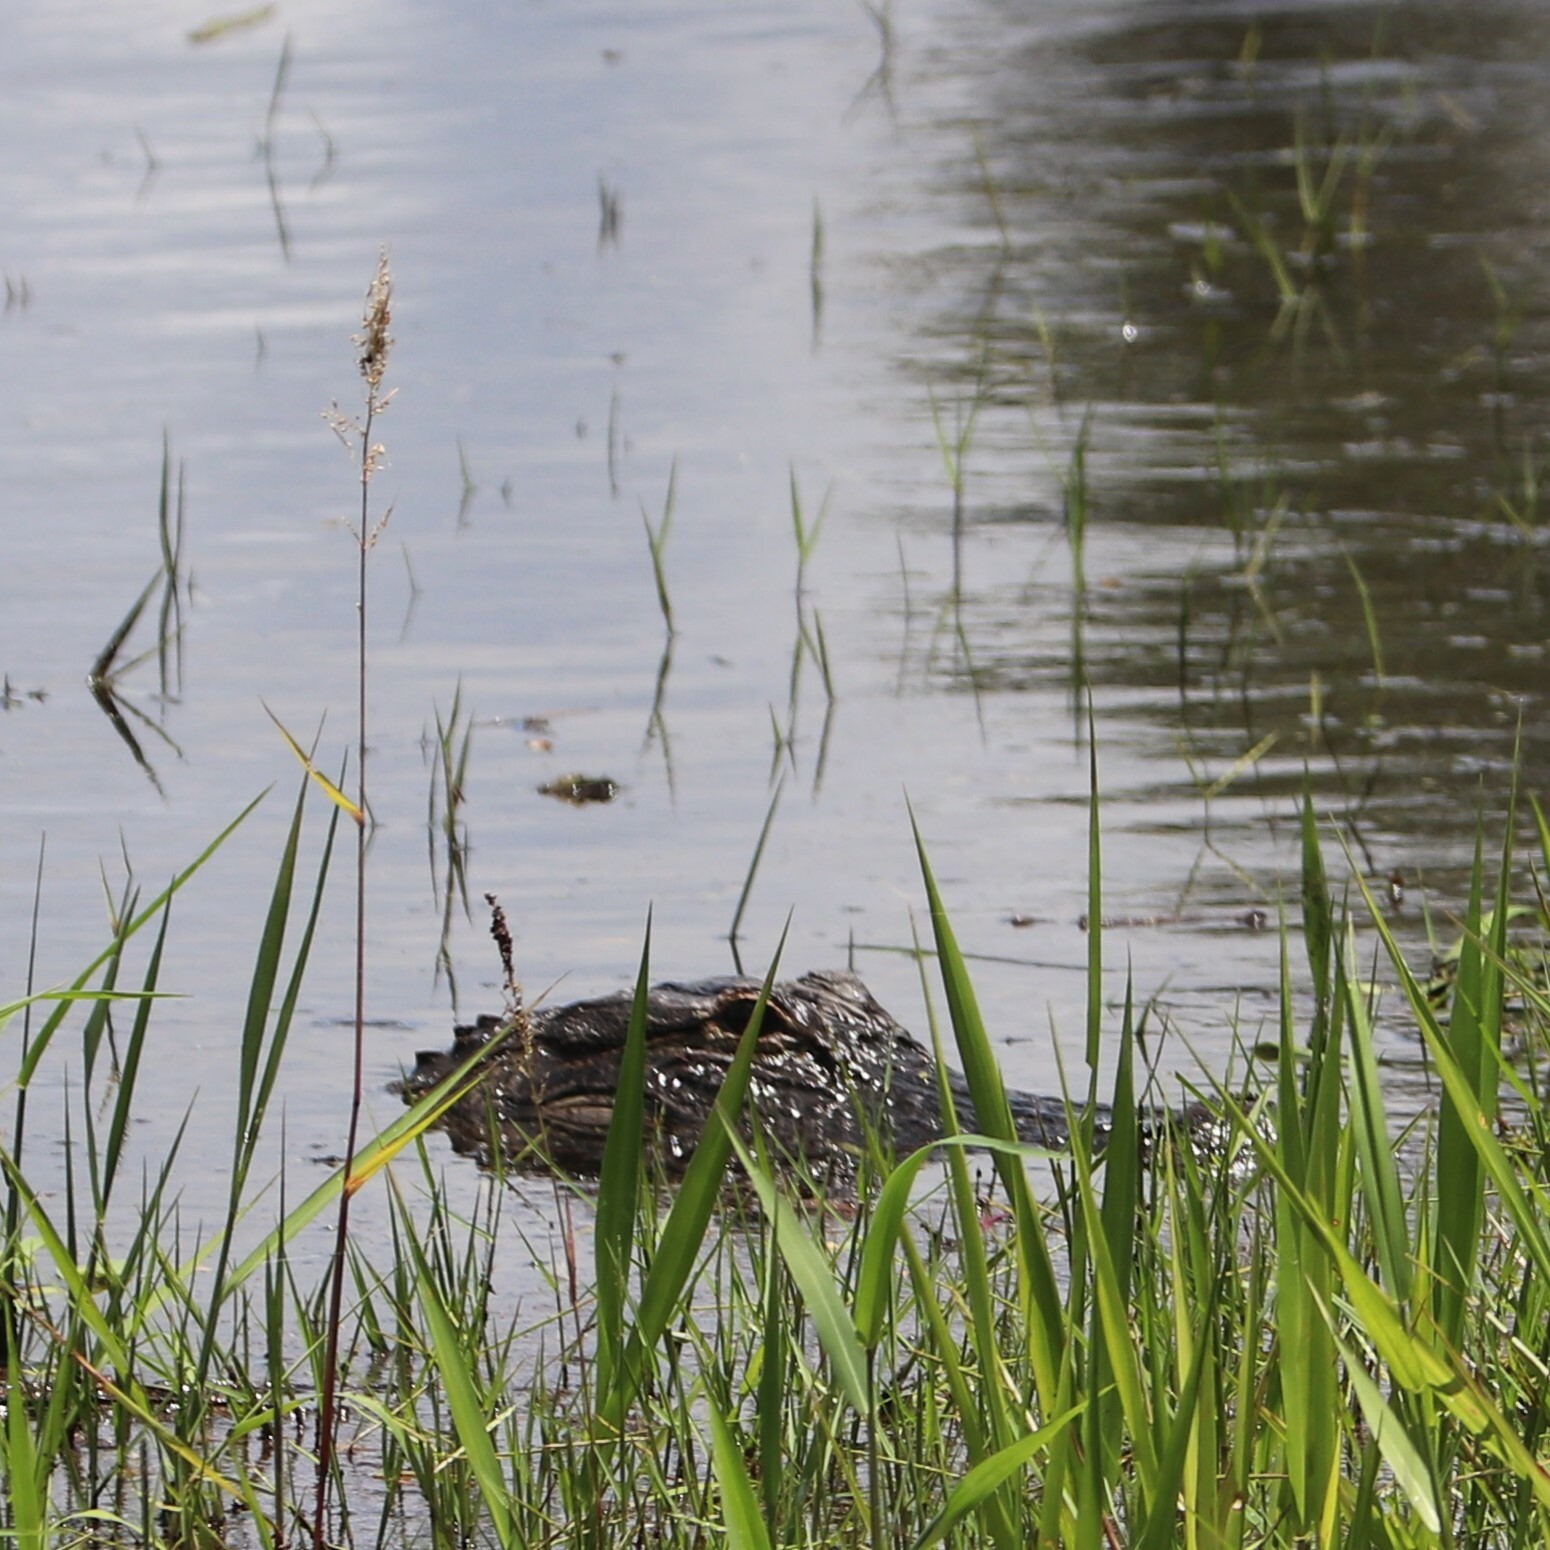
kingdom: Animalia
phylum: Chordata
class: Crocodylia
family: Alligatoridae
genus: Alligator
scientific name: Alligator mississippiensis
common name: American alligator
